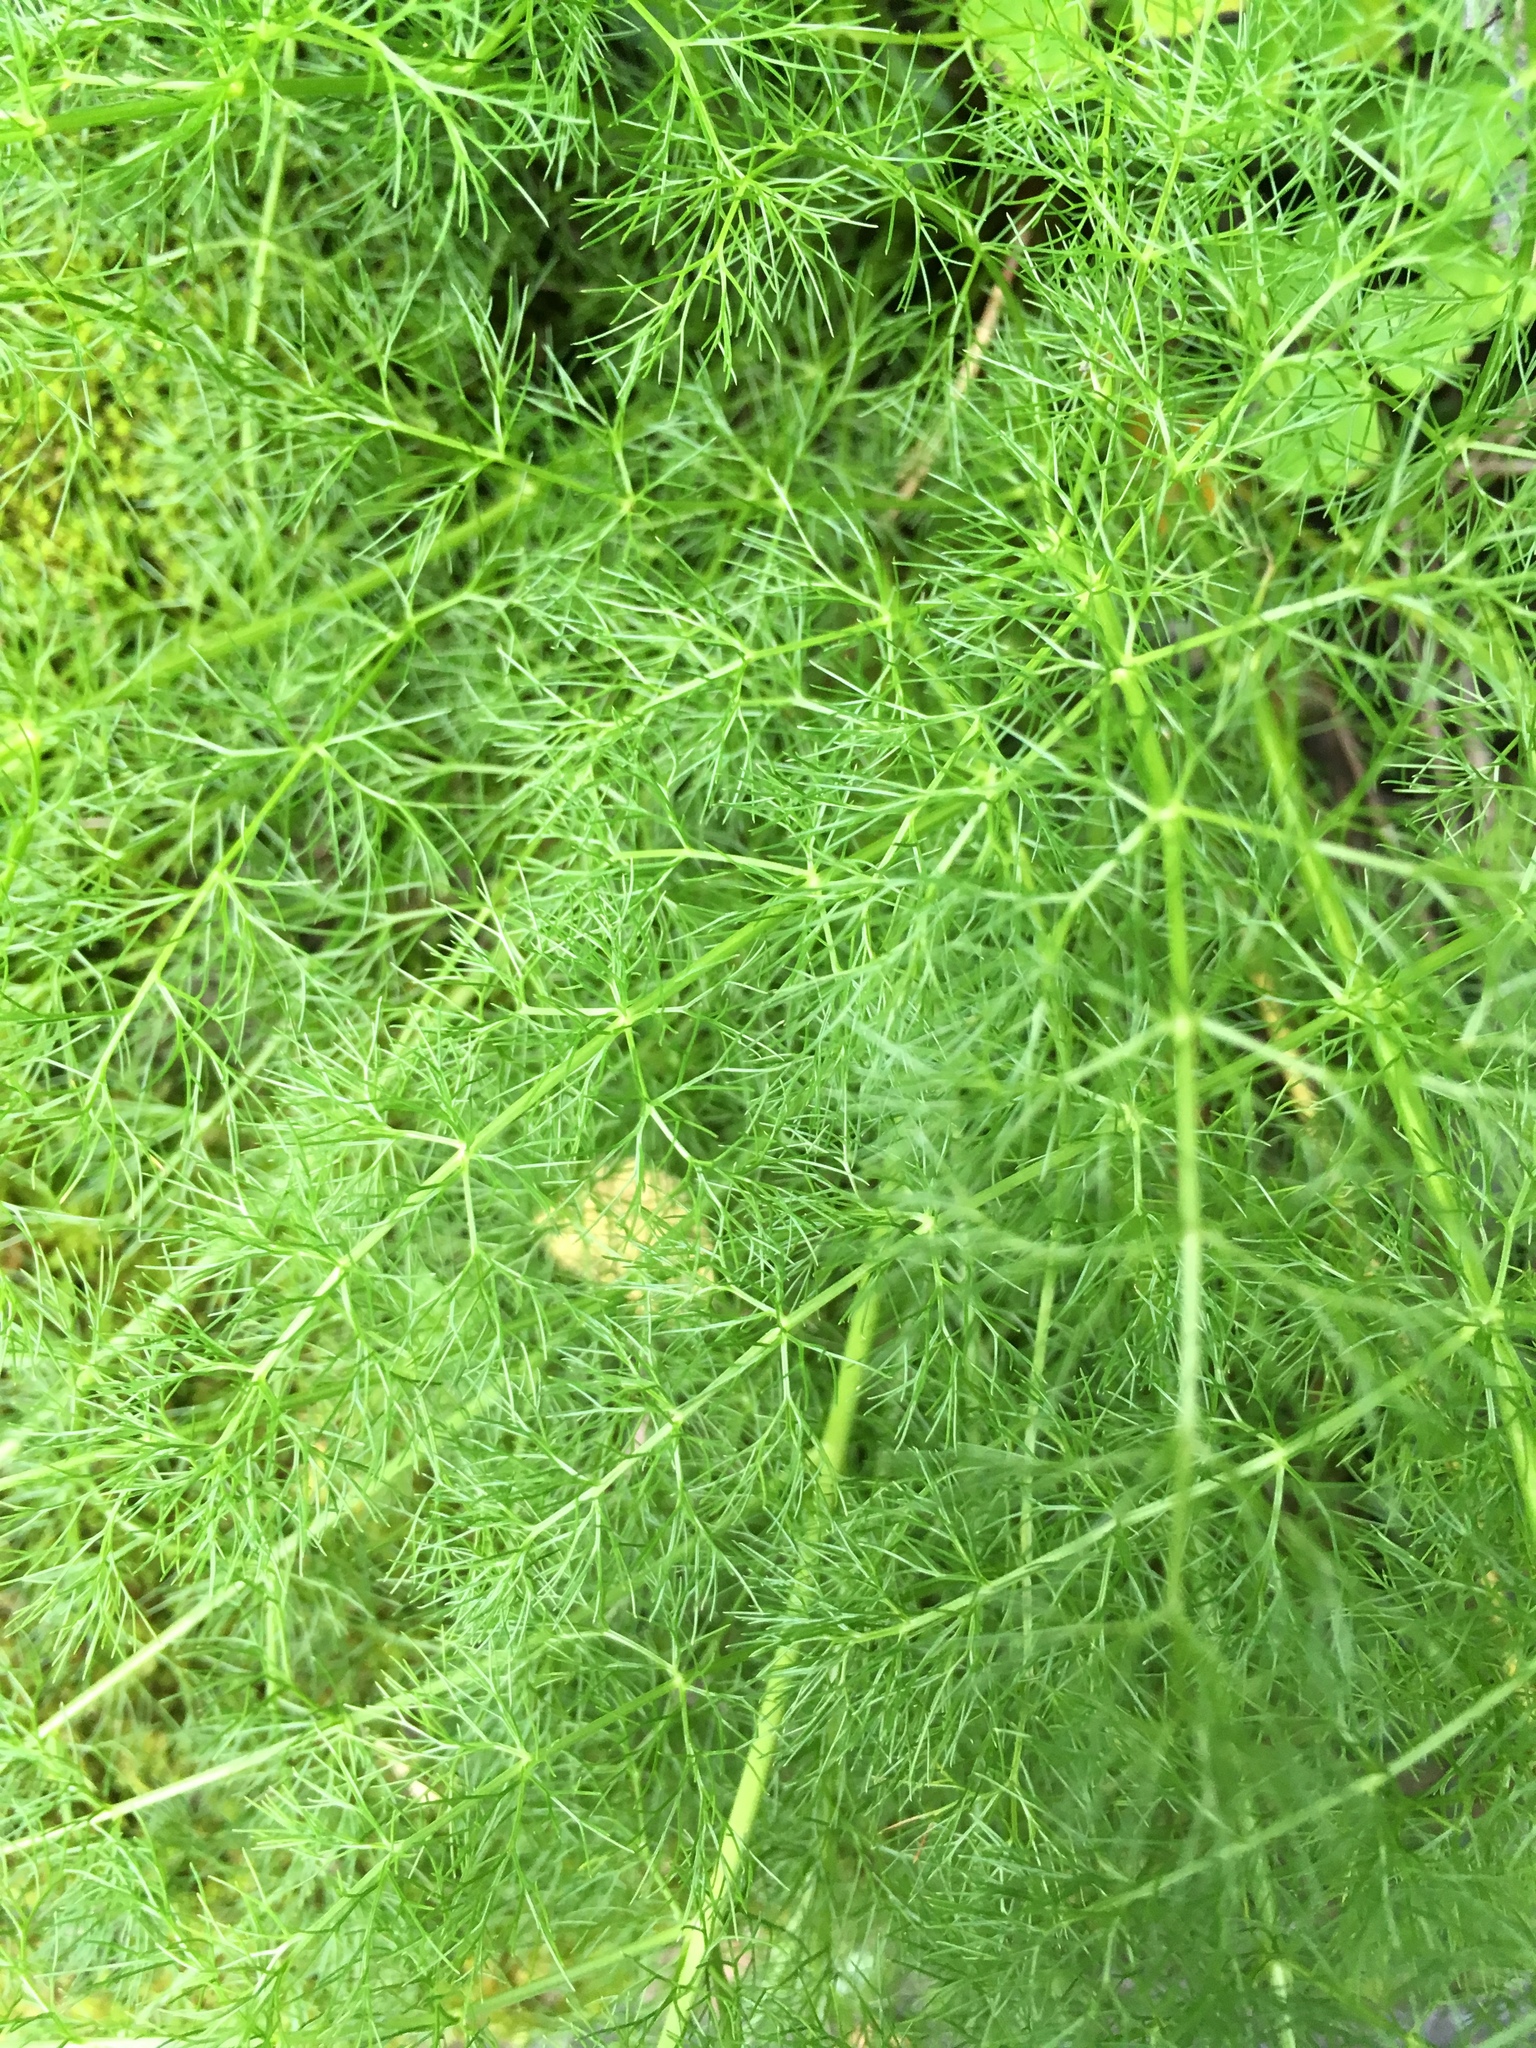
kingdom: Plantae
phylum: Tracheophyta
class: Magnoliopsida
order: Apiales
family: Apiaceae
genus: Foeniculum
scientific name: Foeniculum vulgare
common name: Fennel
